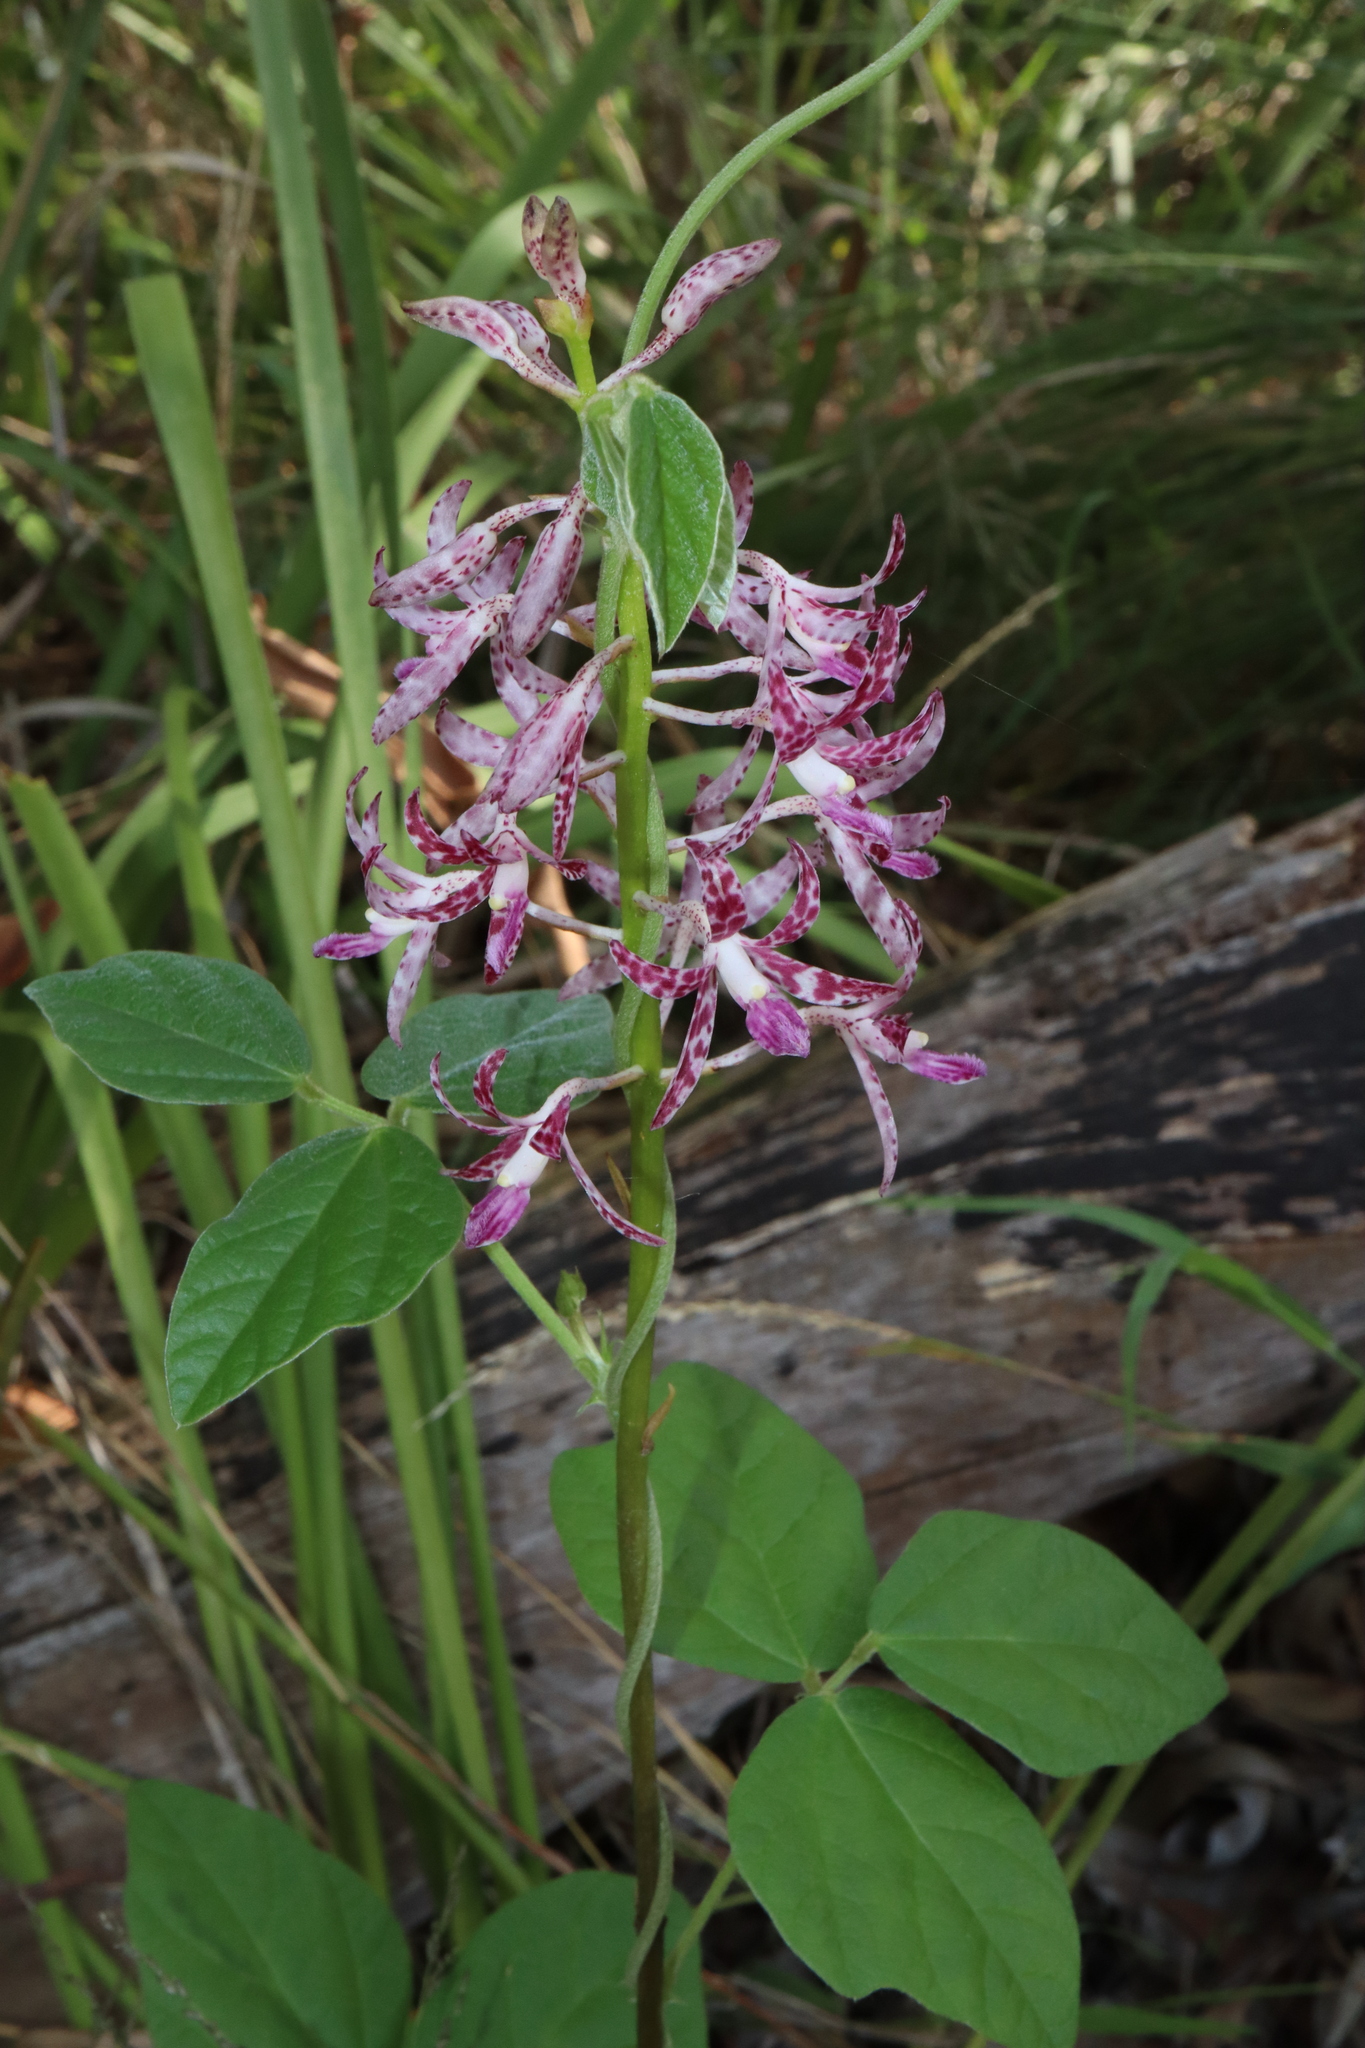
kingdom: Plantae
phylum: Tracheophyta
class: Liliopsida
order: Asparagales
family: Orchidaceae
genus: Dipodium
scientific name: Dipodium variegatum
